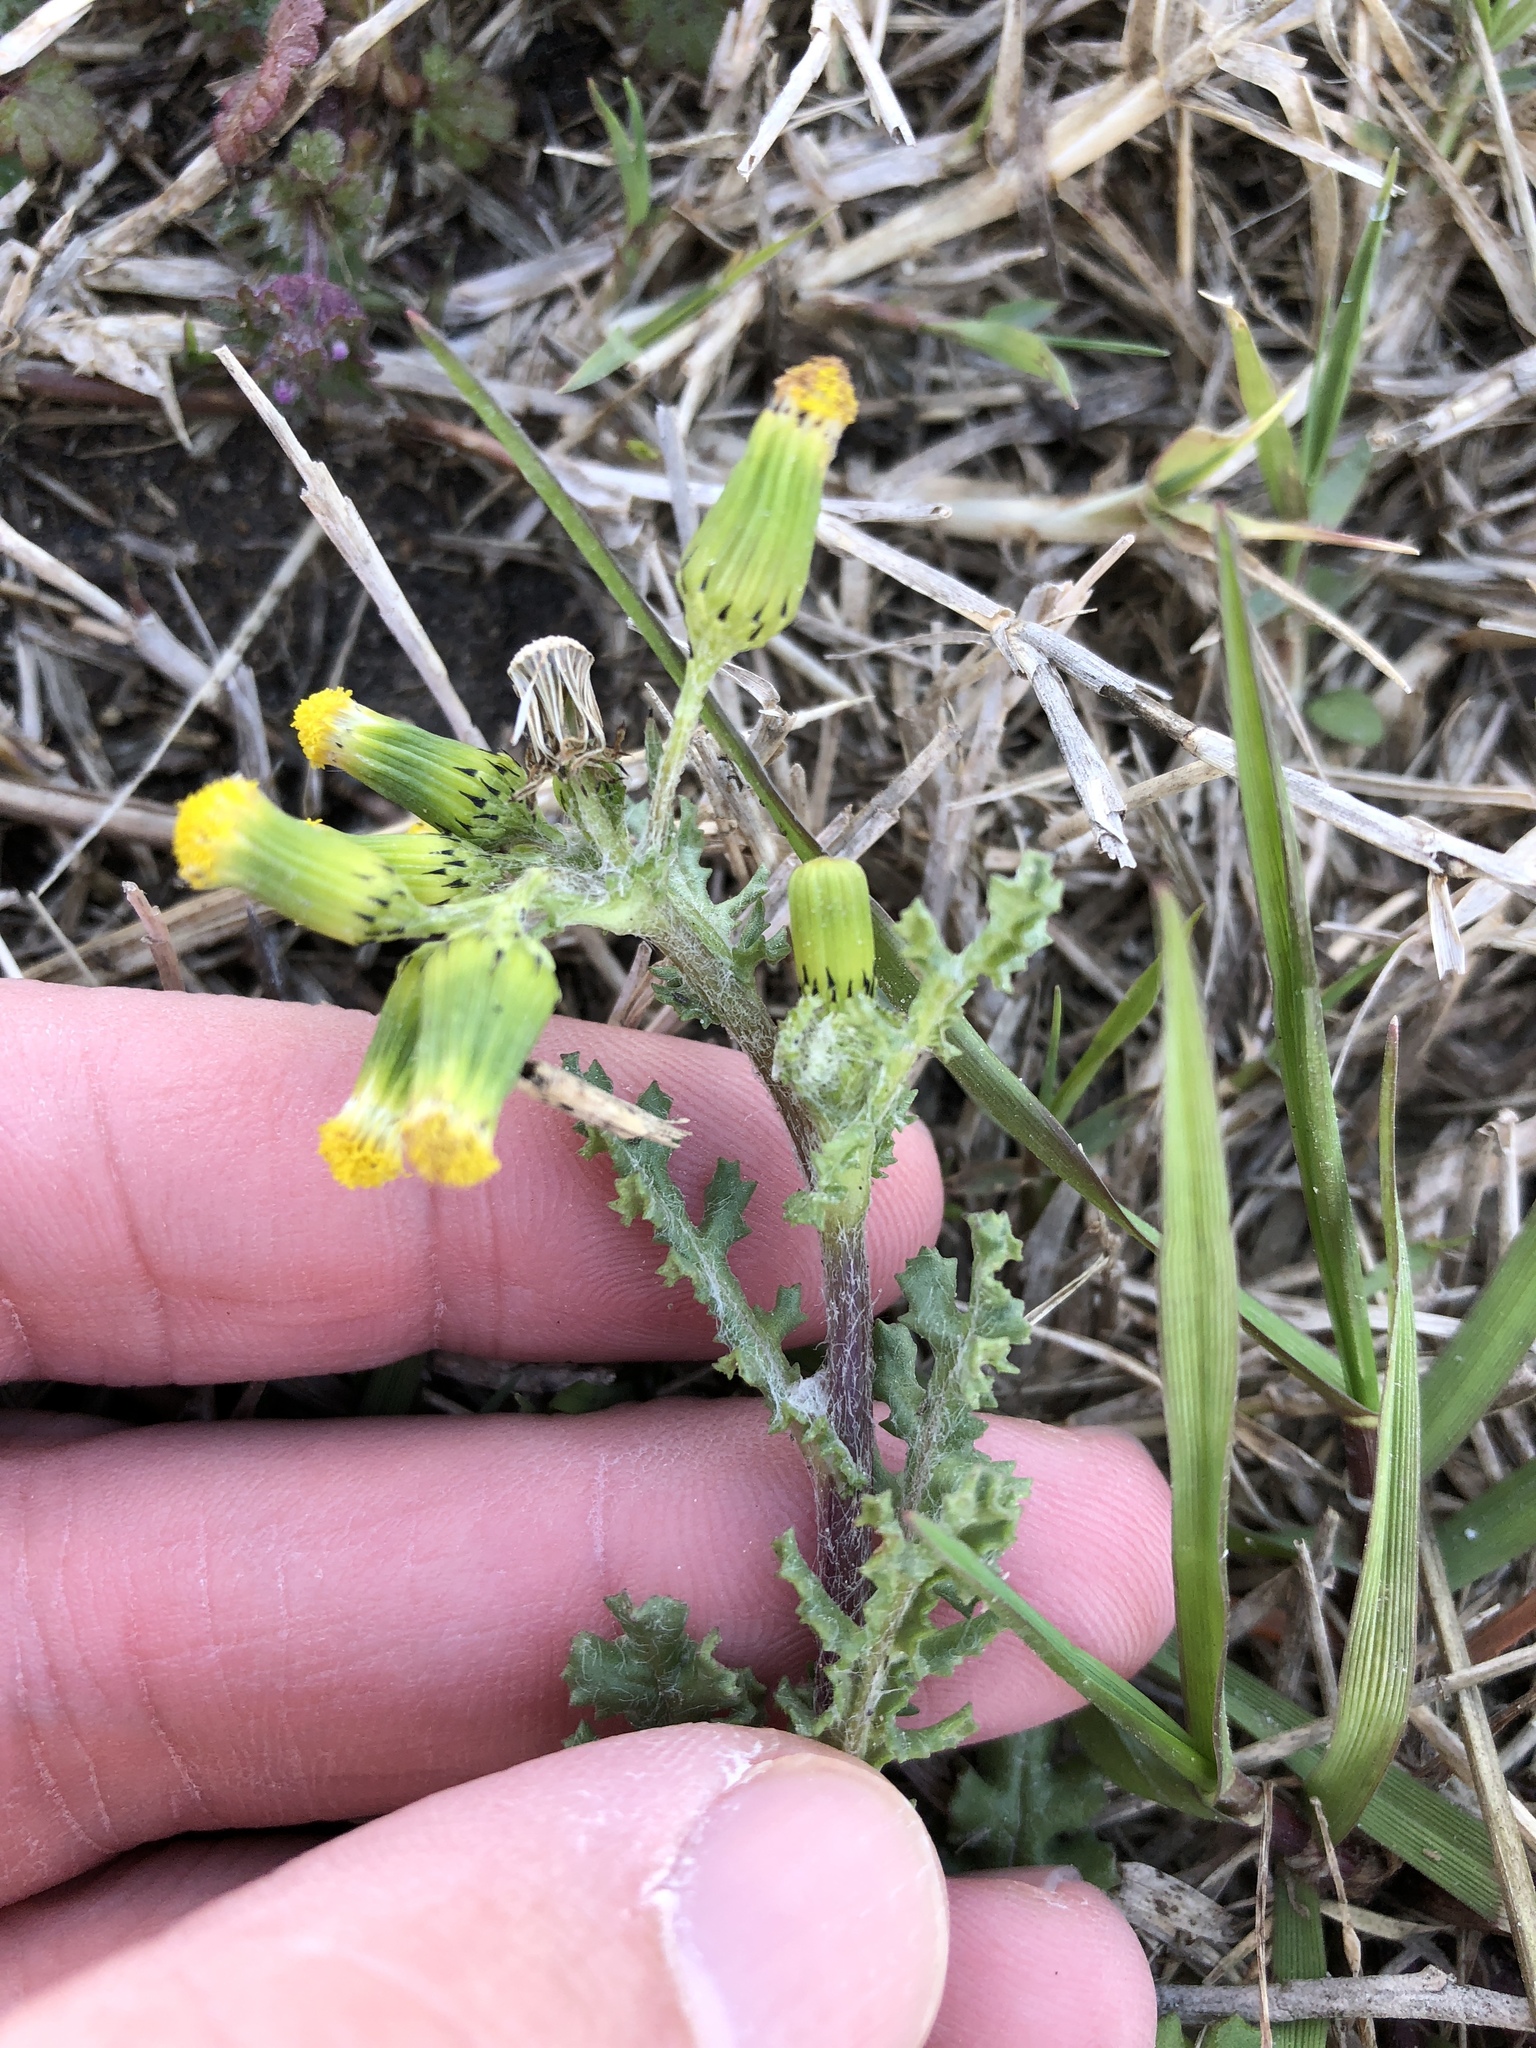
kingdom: Plantae
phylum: Tracheophyta
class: Magnoliopsida
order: Asterales
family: Asteraceae
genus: Senecio
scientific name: Senecio vulgaris
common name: Old-man-in-the-spring
